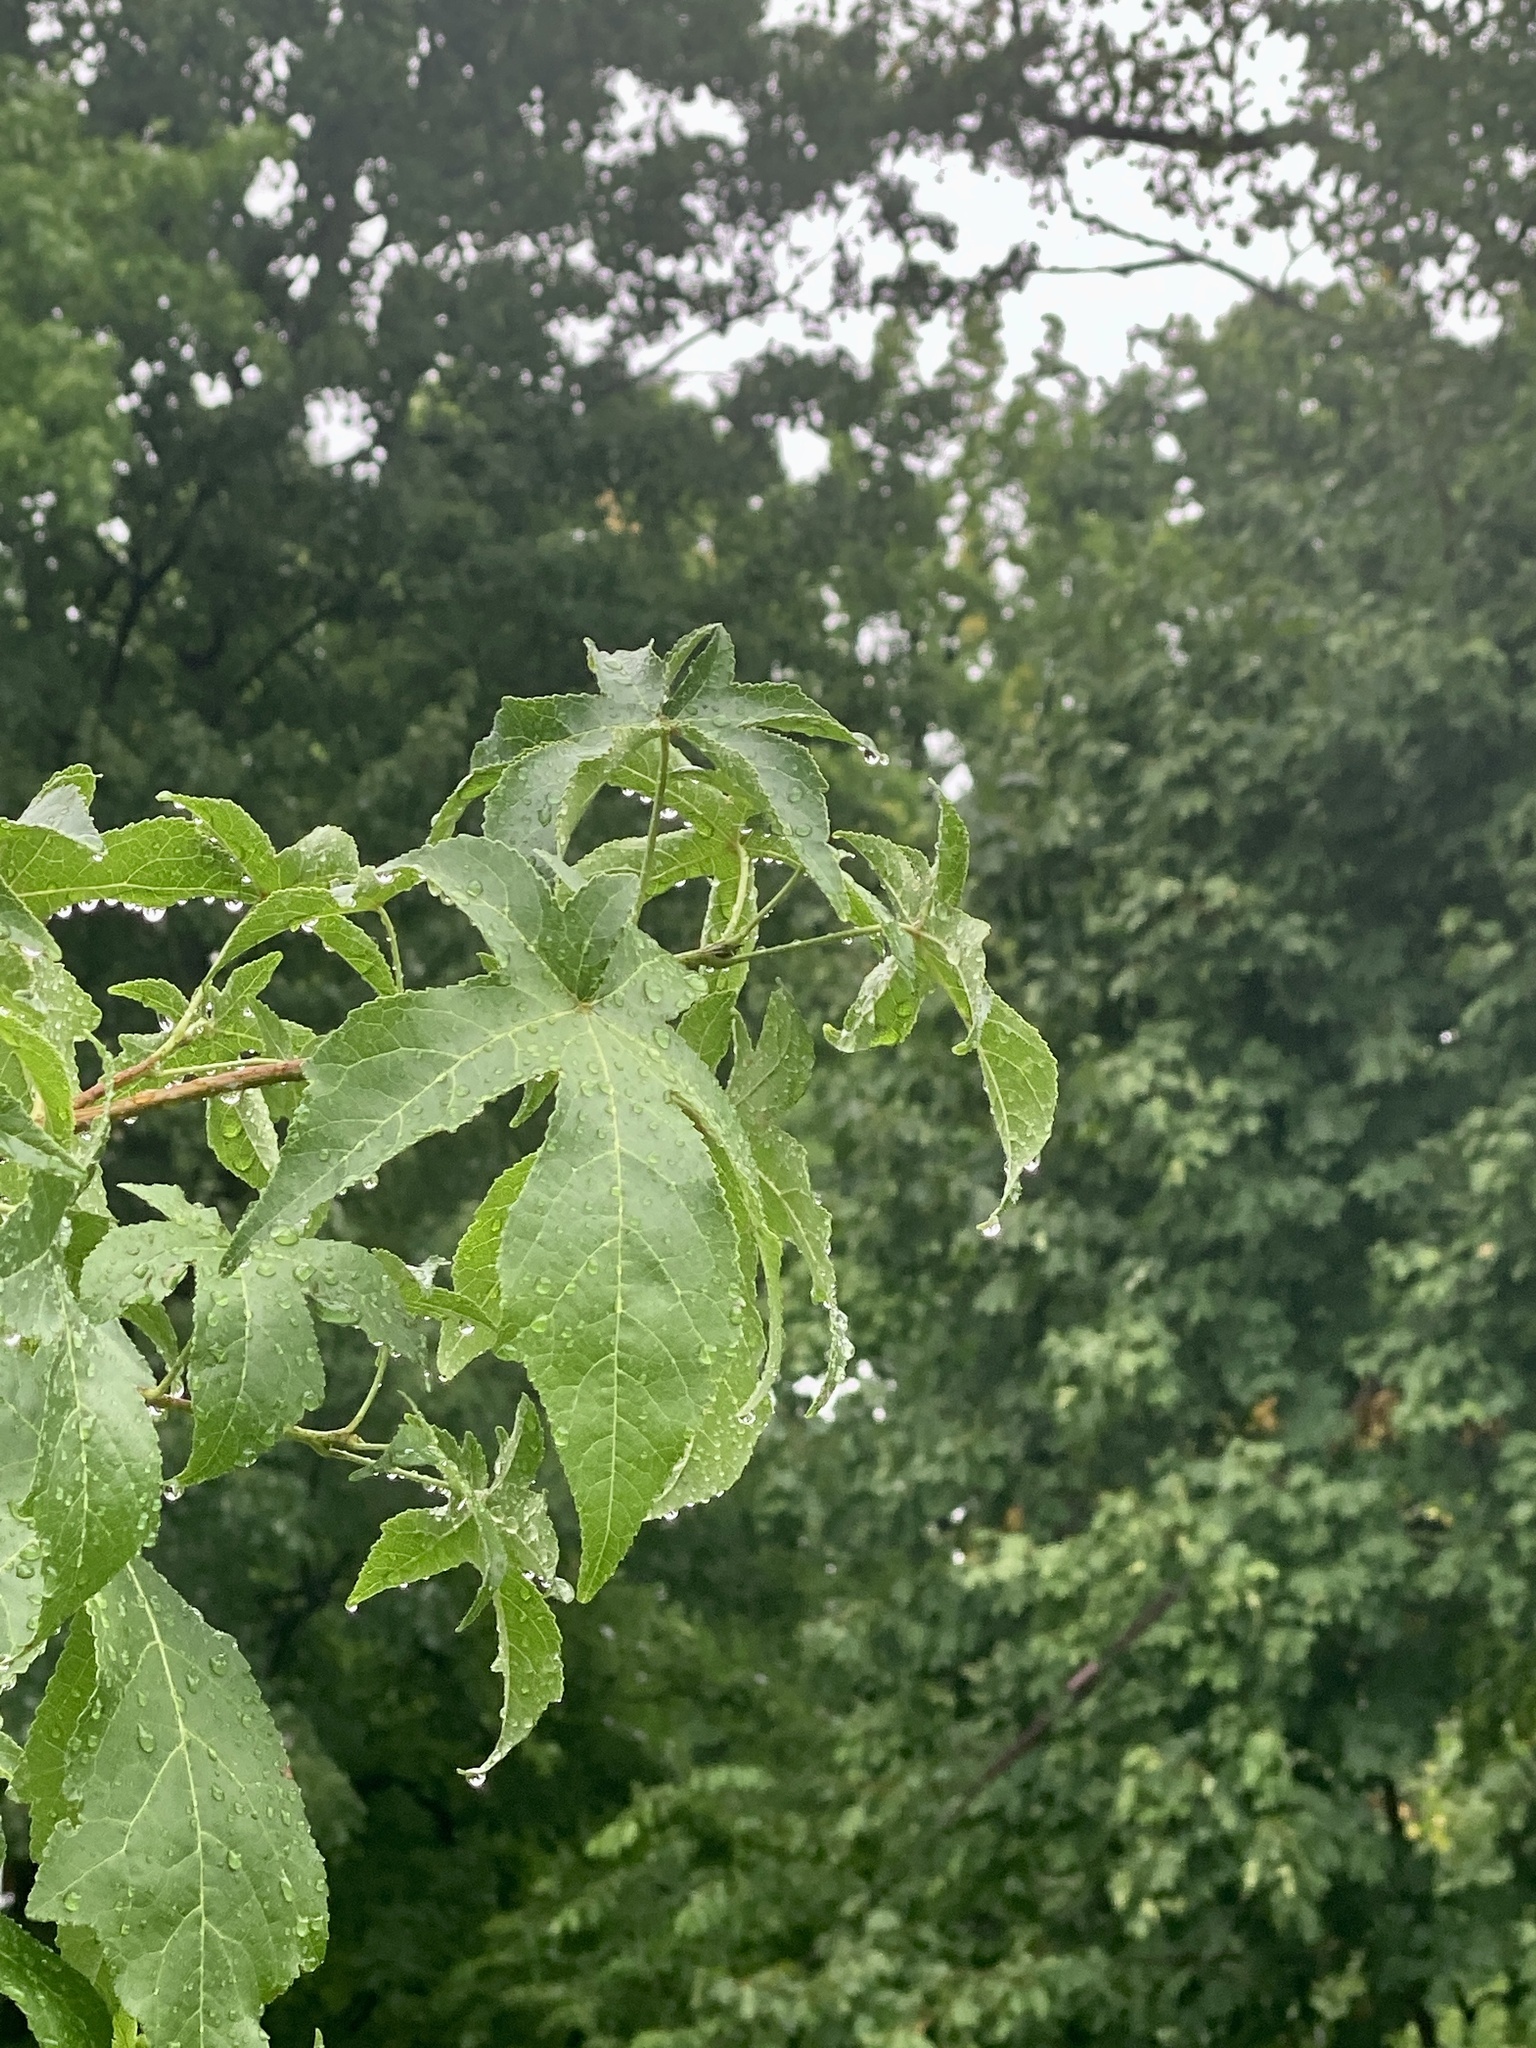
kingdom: Plantae
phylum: Tracheophyta
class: Magnoliopsida
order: Saxifragales
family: Altingiaceae
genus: Liquidambar
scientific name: Liquidambar styraciflua
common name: Sweet gum
